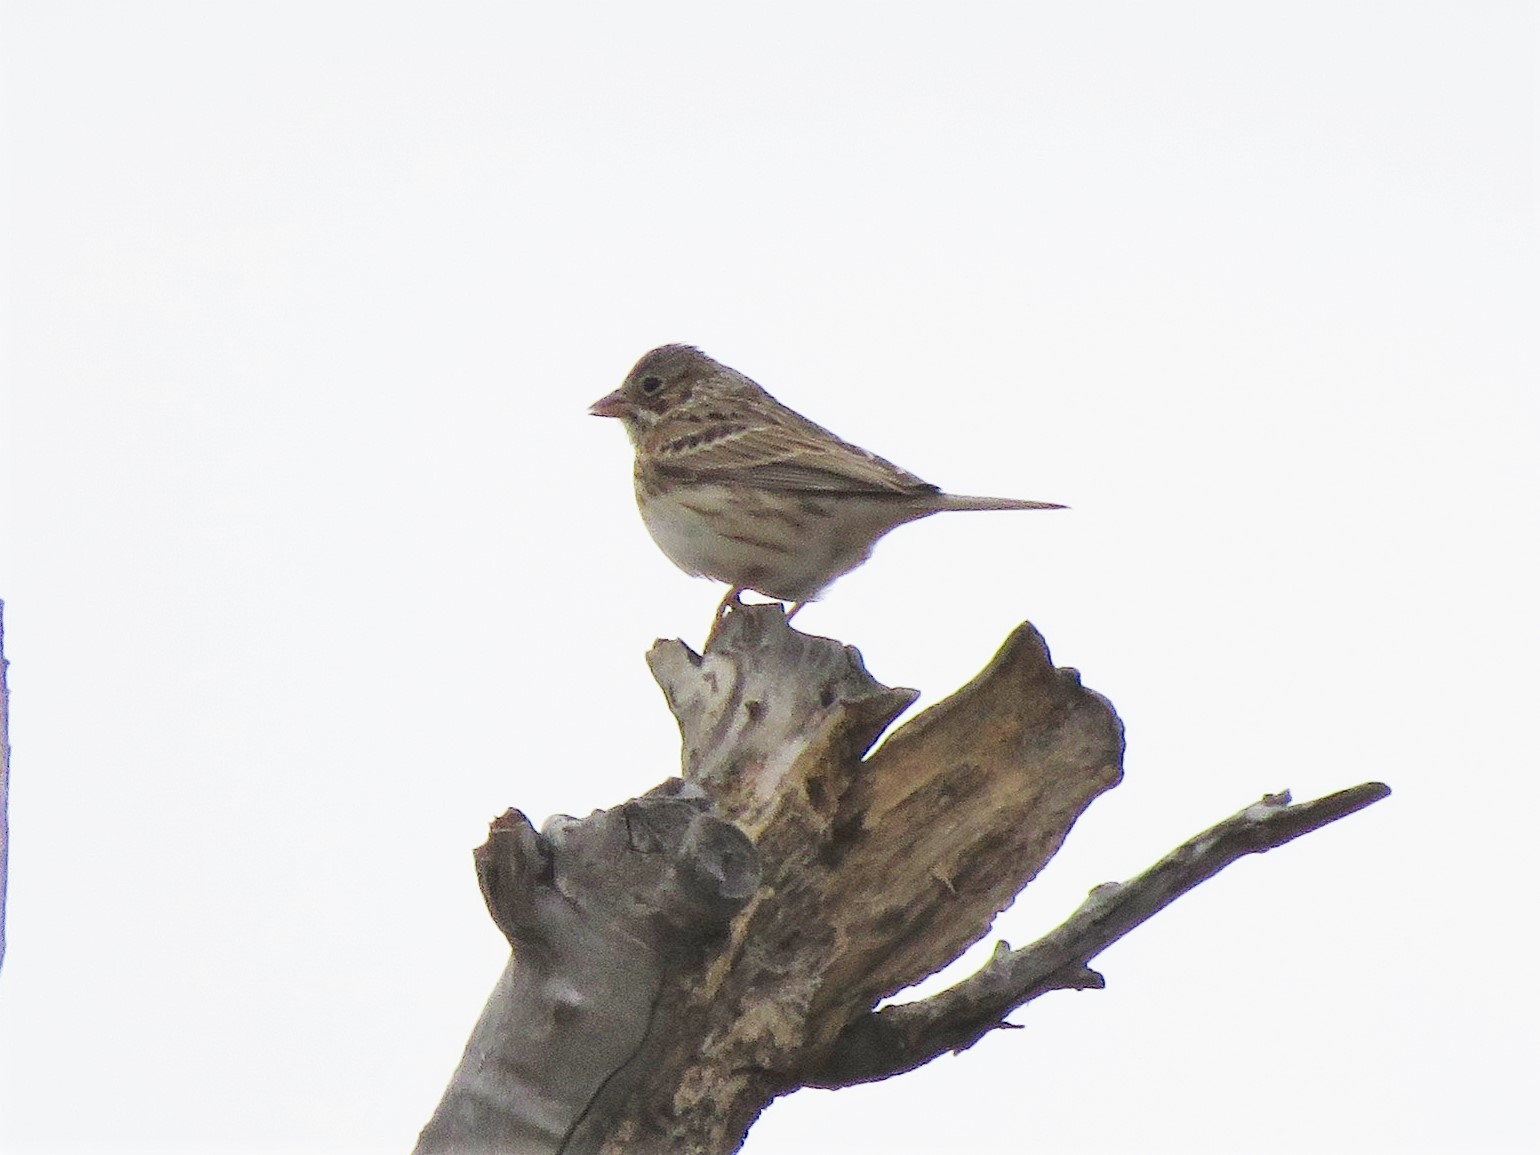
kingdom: Animalia
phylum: Chordata
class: Aves
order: Passeriformes
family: Passerellidae
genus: Pooecetes
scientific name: Pooecetes gramineus
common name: Vesper sparrow
